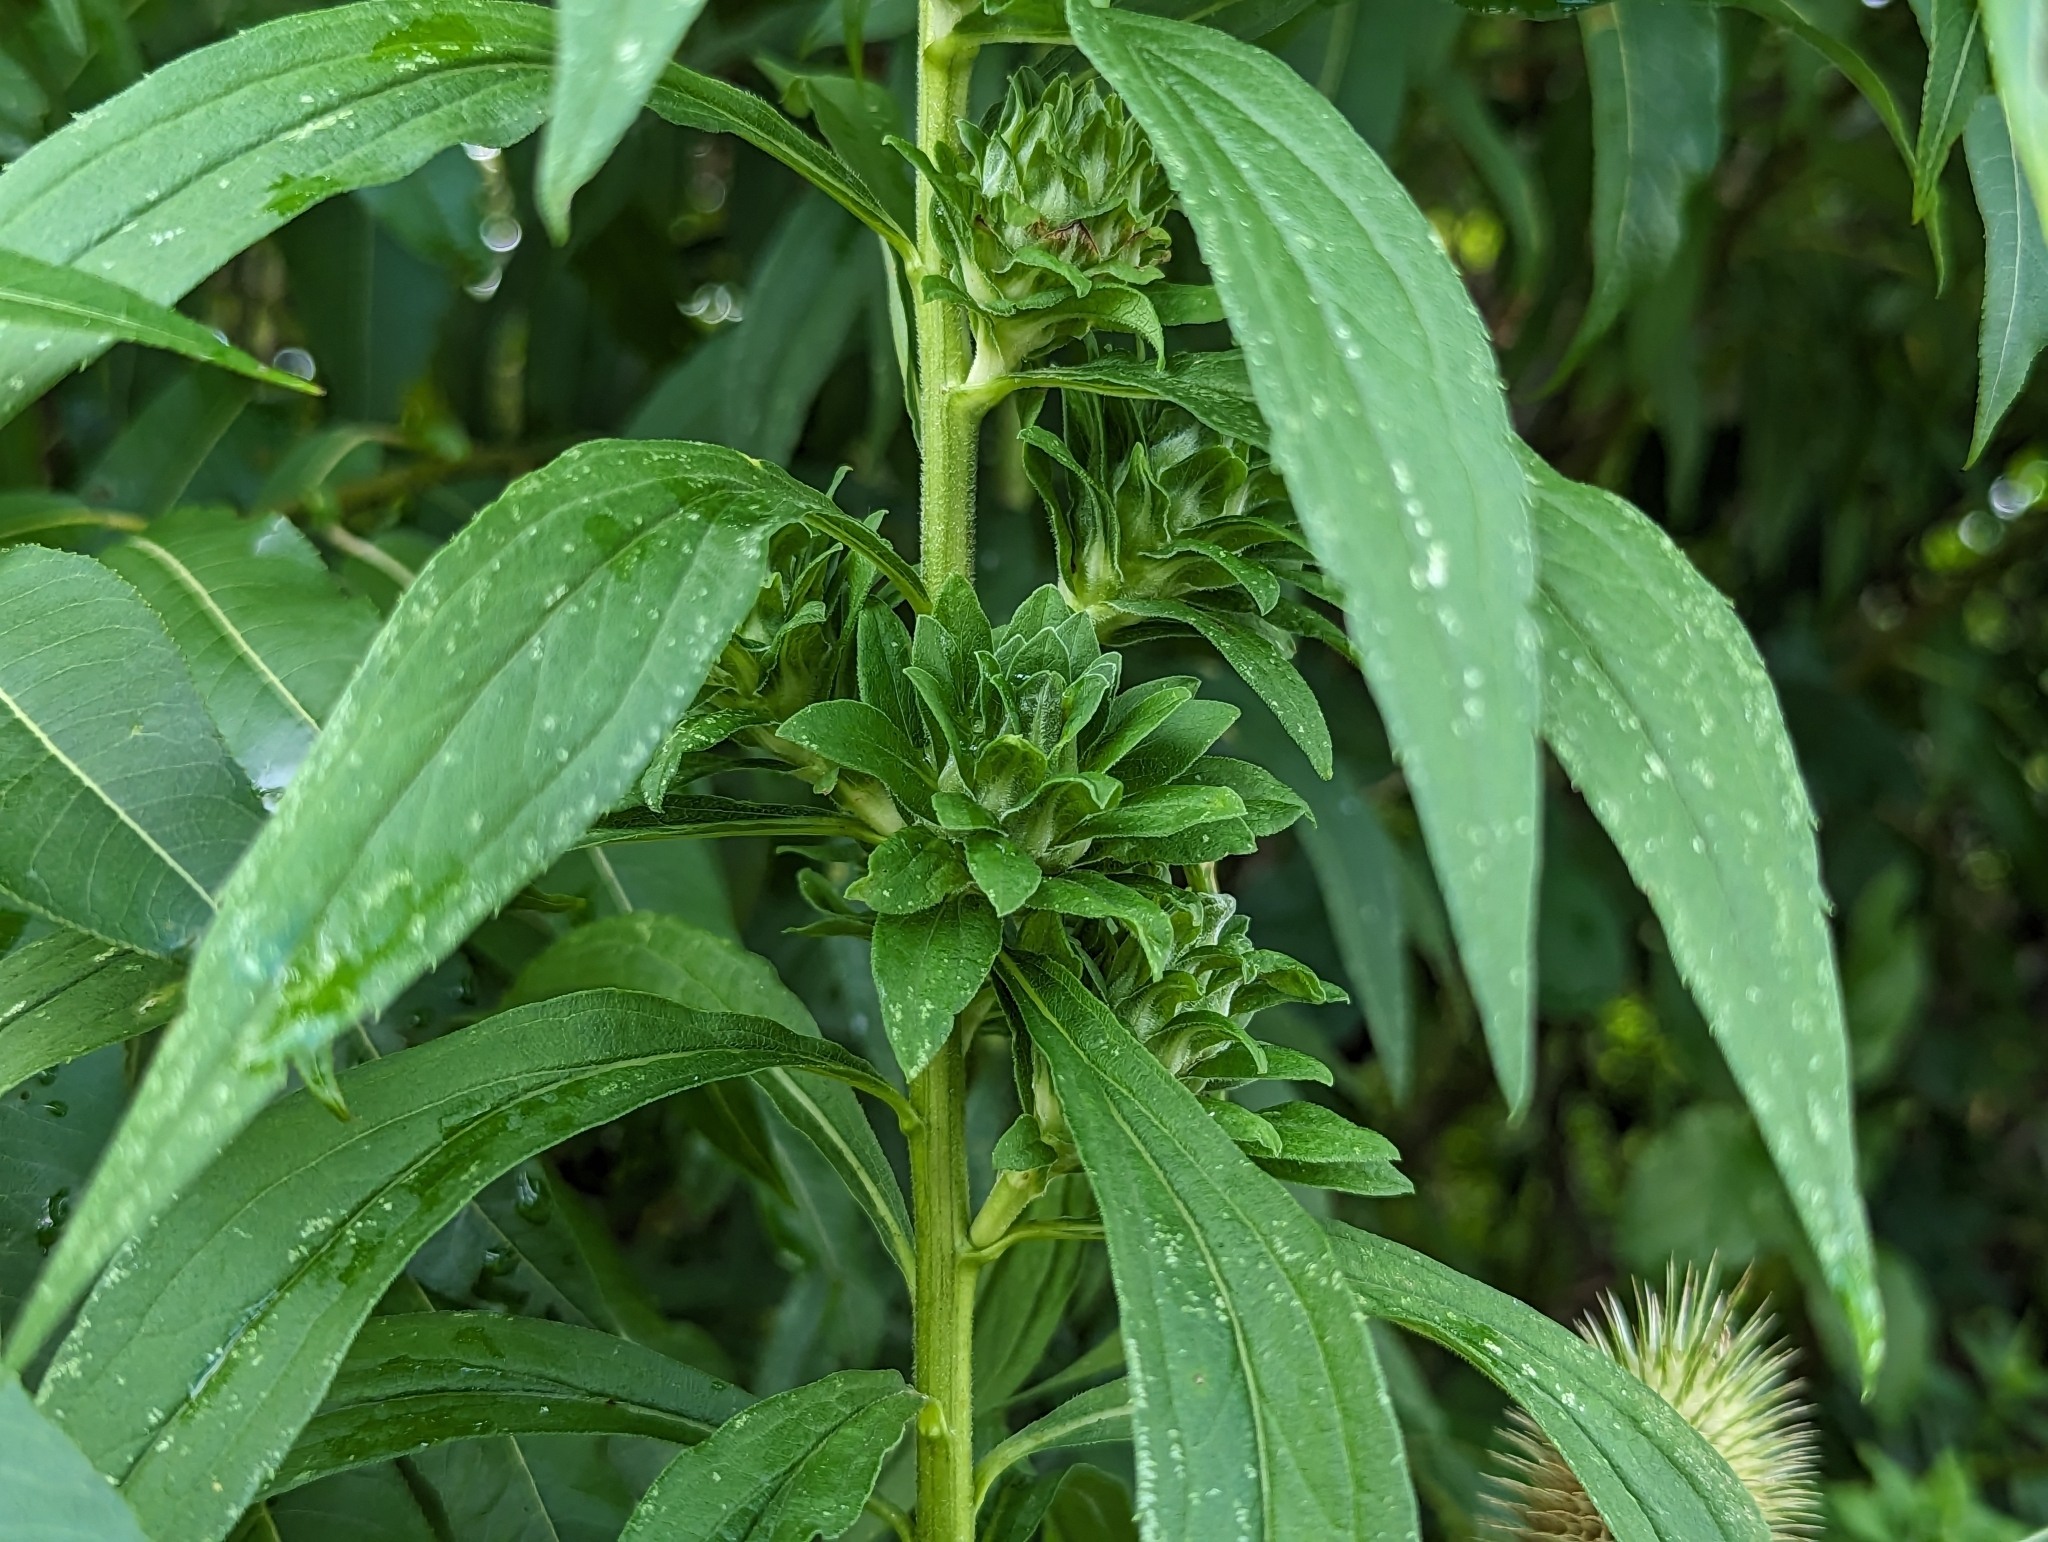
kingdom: Animalia
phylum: Arthropoda
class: Insecta
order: Diptera
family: Tephritidae
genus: Procecidochares
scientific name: Procecidochares atra
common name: Goldenrod brussels sprout gall fly
